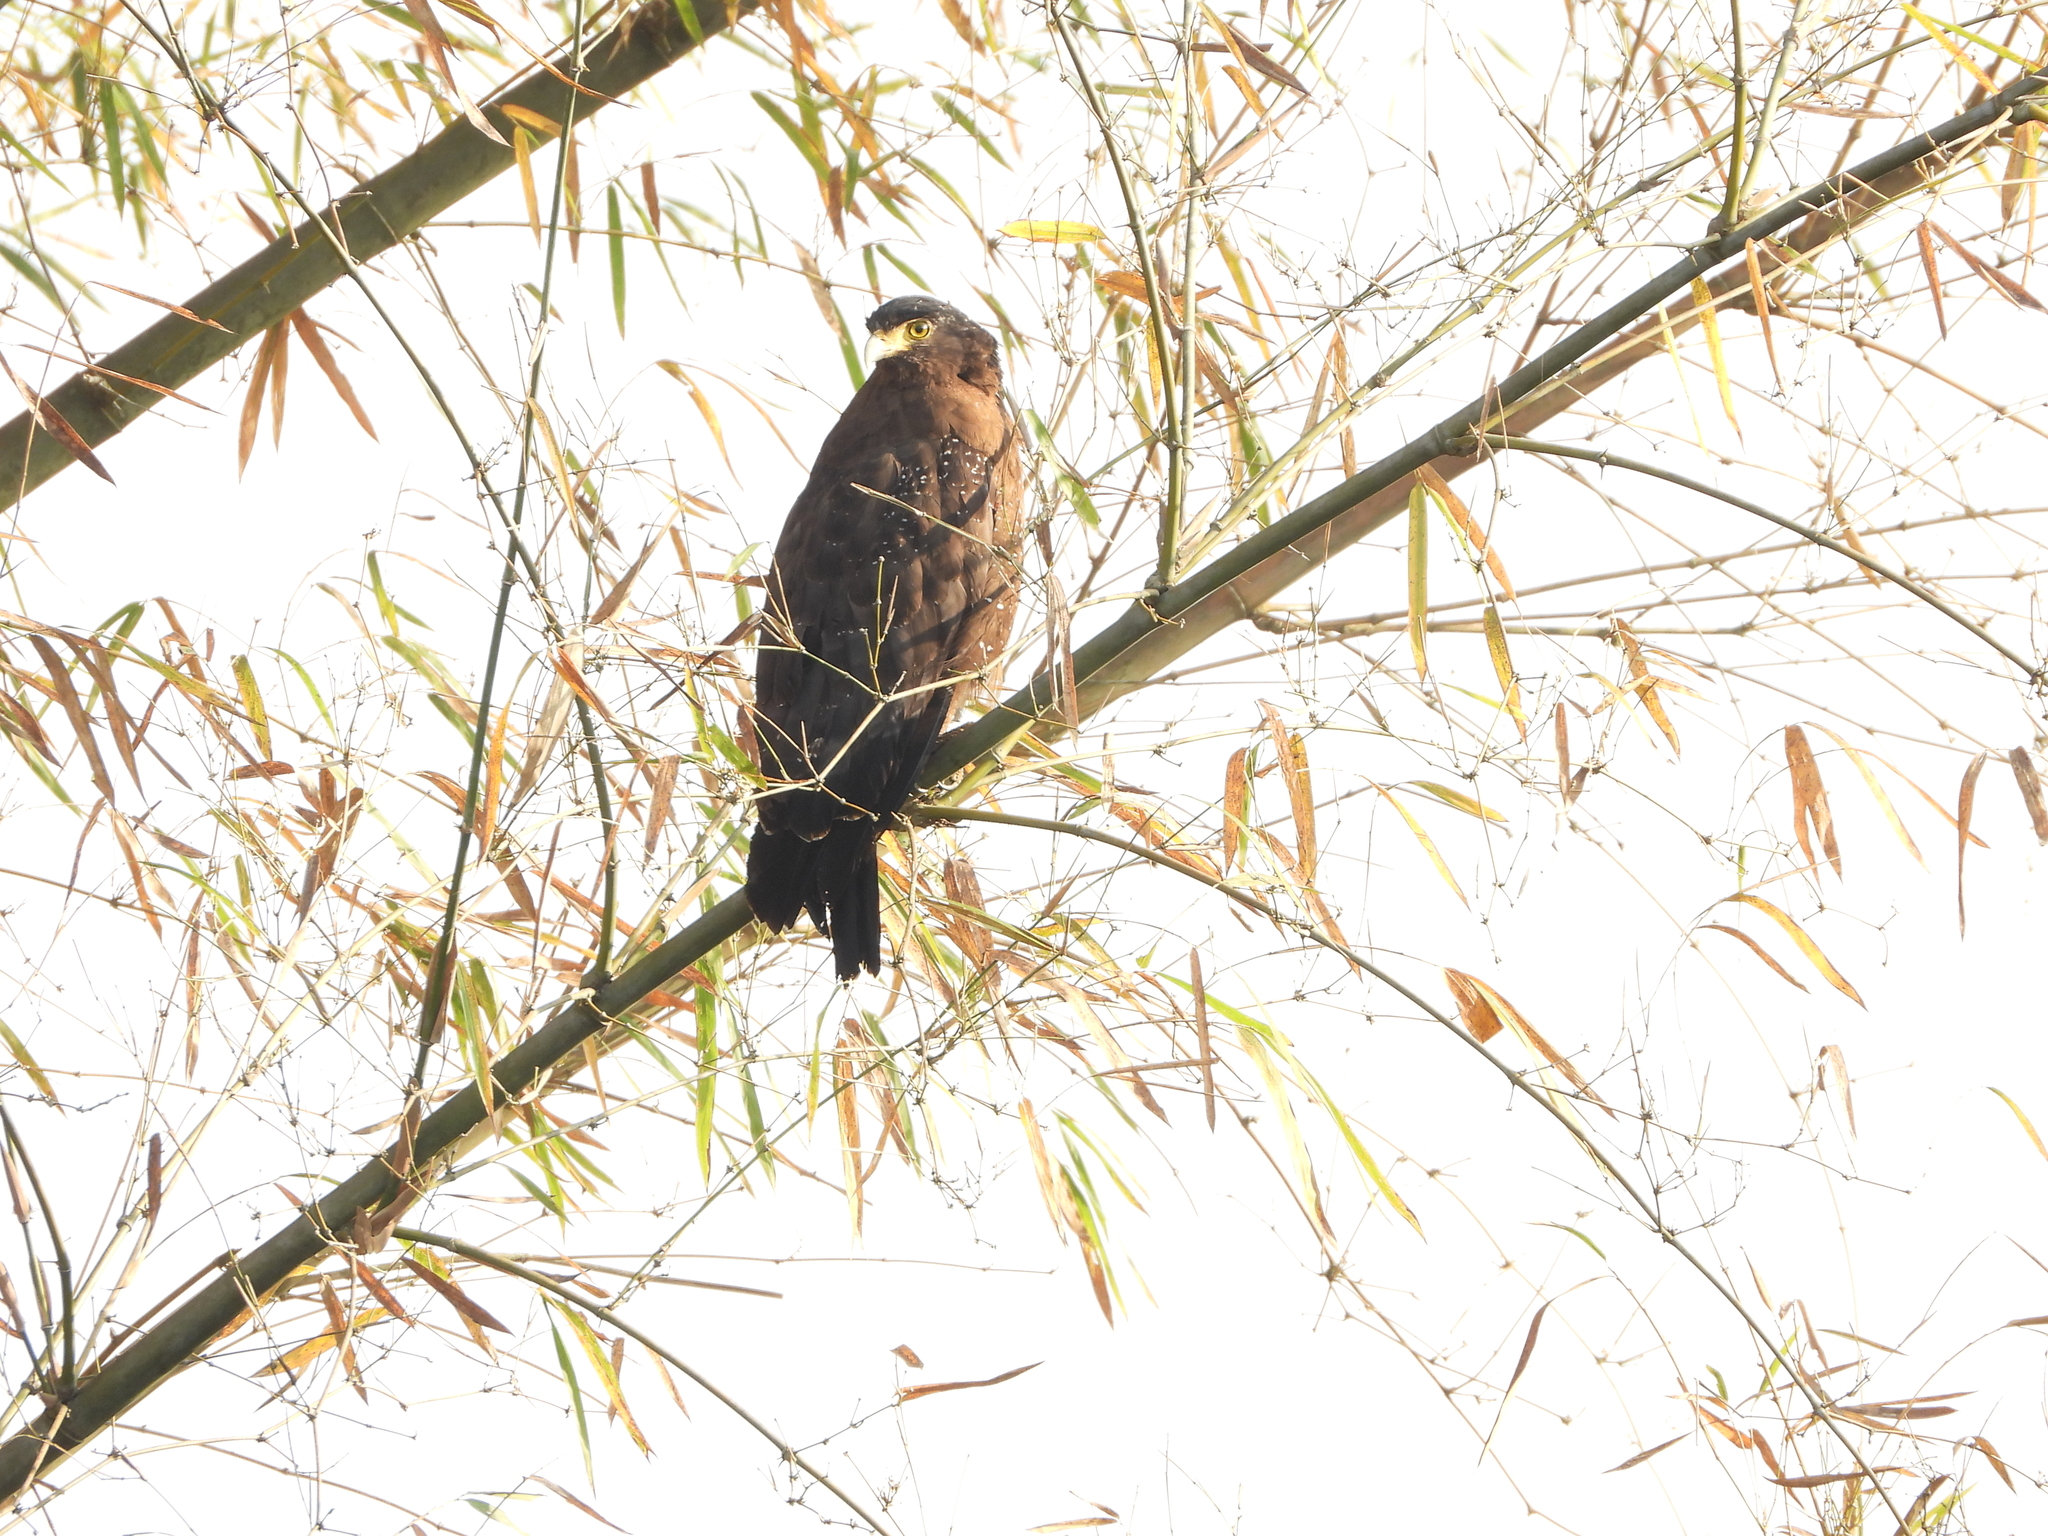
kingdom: Animalia
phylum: Chordata
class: Aves
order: Accipitriformes
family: Accipitridae
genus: Spilornis
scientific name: Spilornis cheela
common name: Crested serpent eagle
